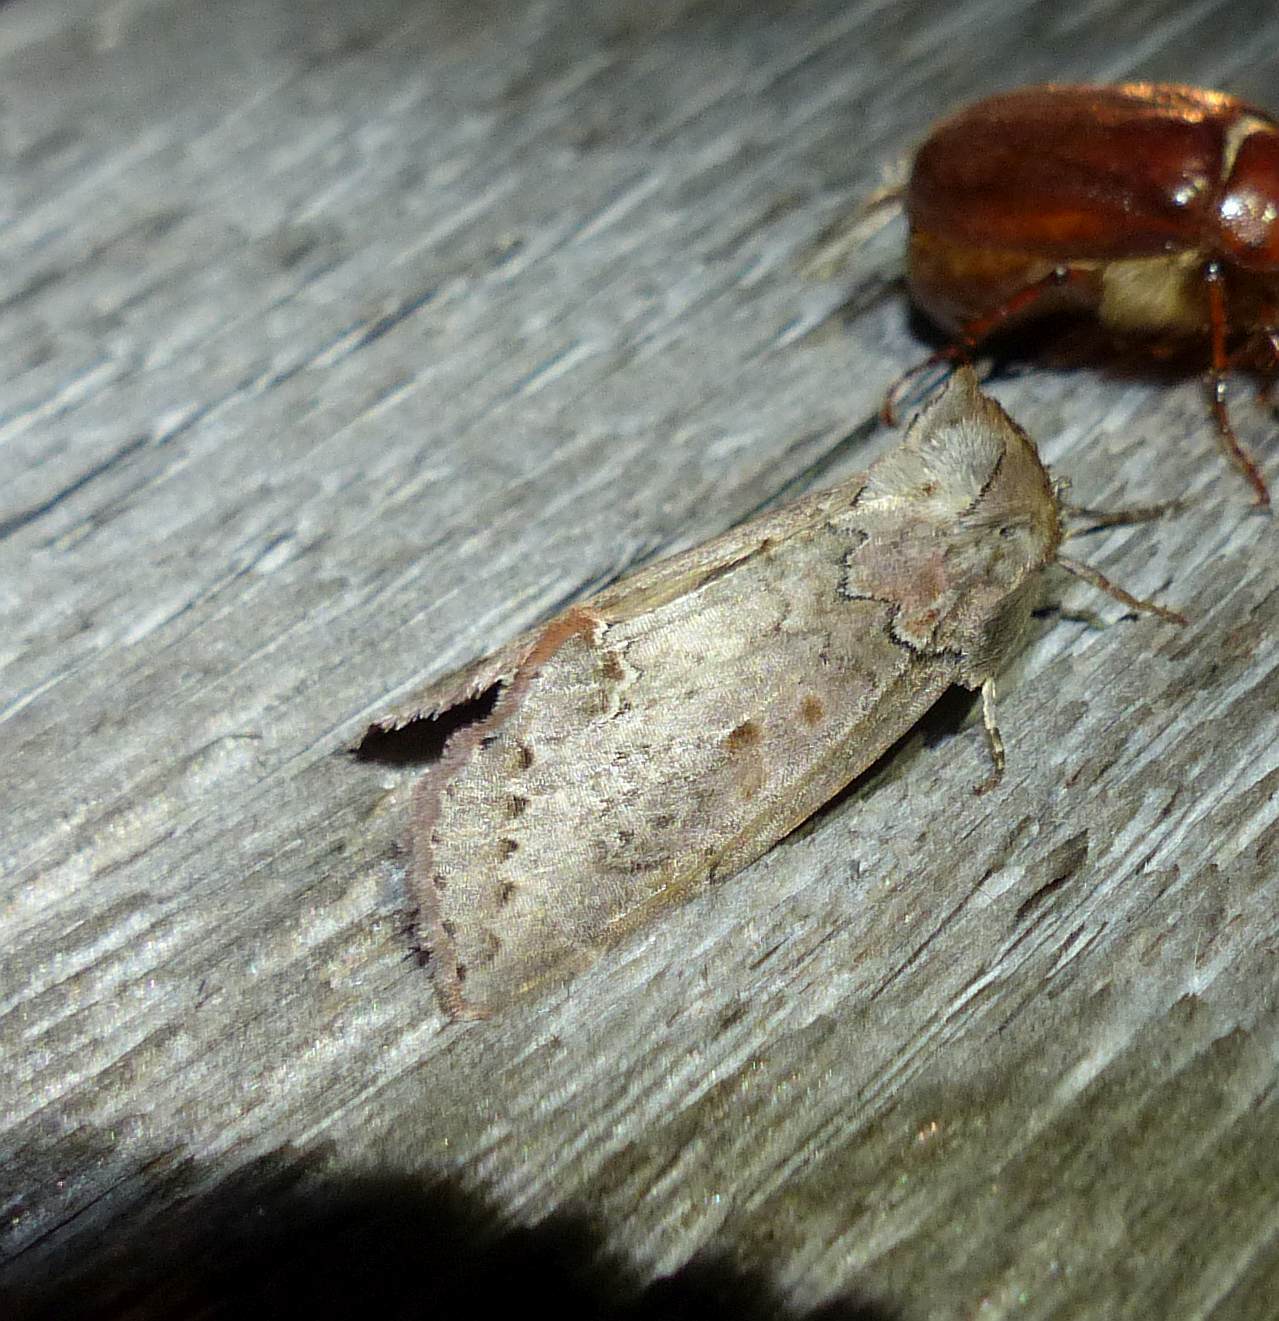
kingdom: Animalia
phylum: Arthropoda
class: Insecta
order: Lepidoptera
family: Drepanidae
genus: Pseudothyatira
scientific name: Pseudothyatira cymatophoroides
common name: Tufted thyatirid moth
